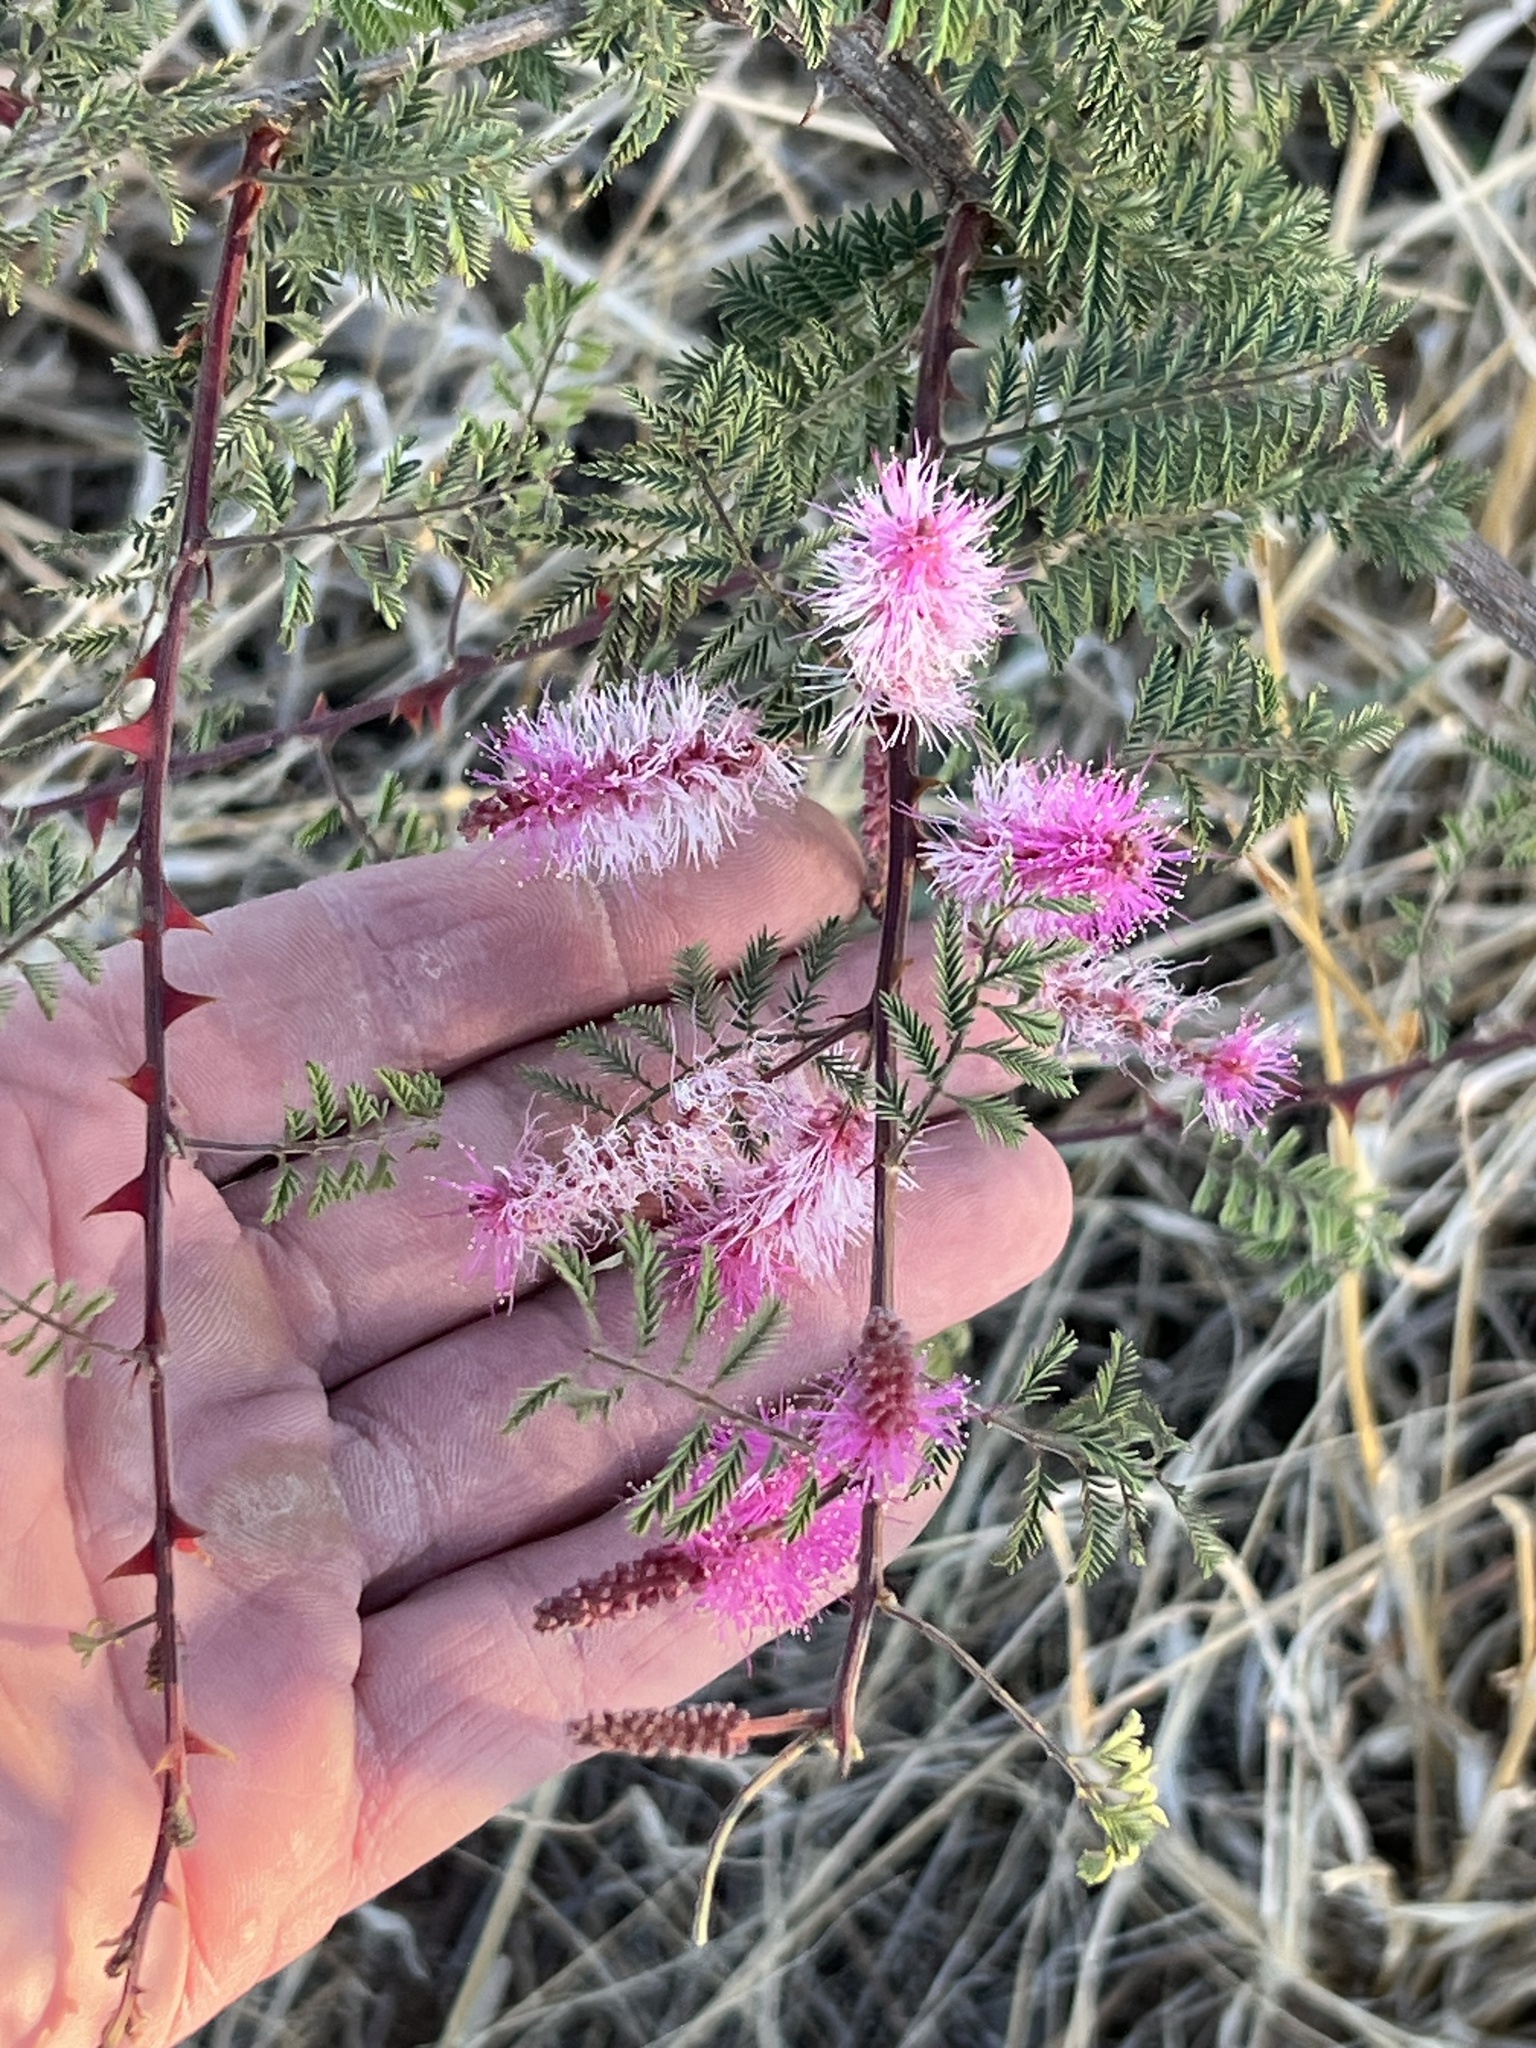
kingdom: Plantae
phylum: Tracheophyta
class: Magnoliopsida
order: Fabales
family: Fabaceae
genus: Mimosa
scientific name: Mimosa dysocarpa
